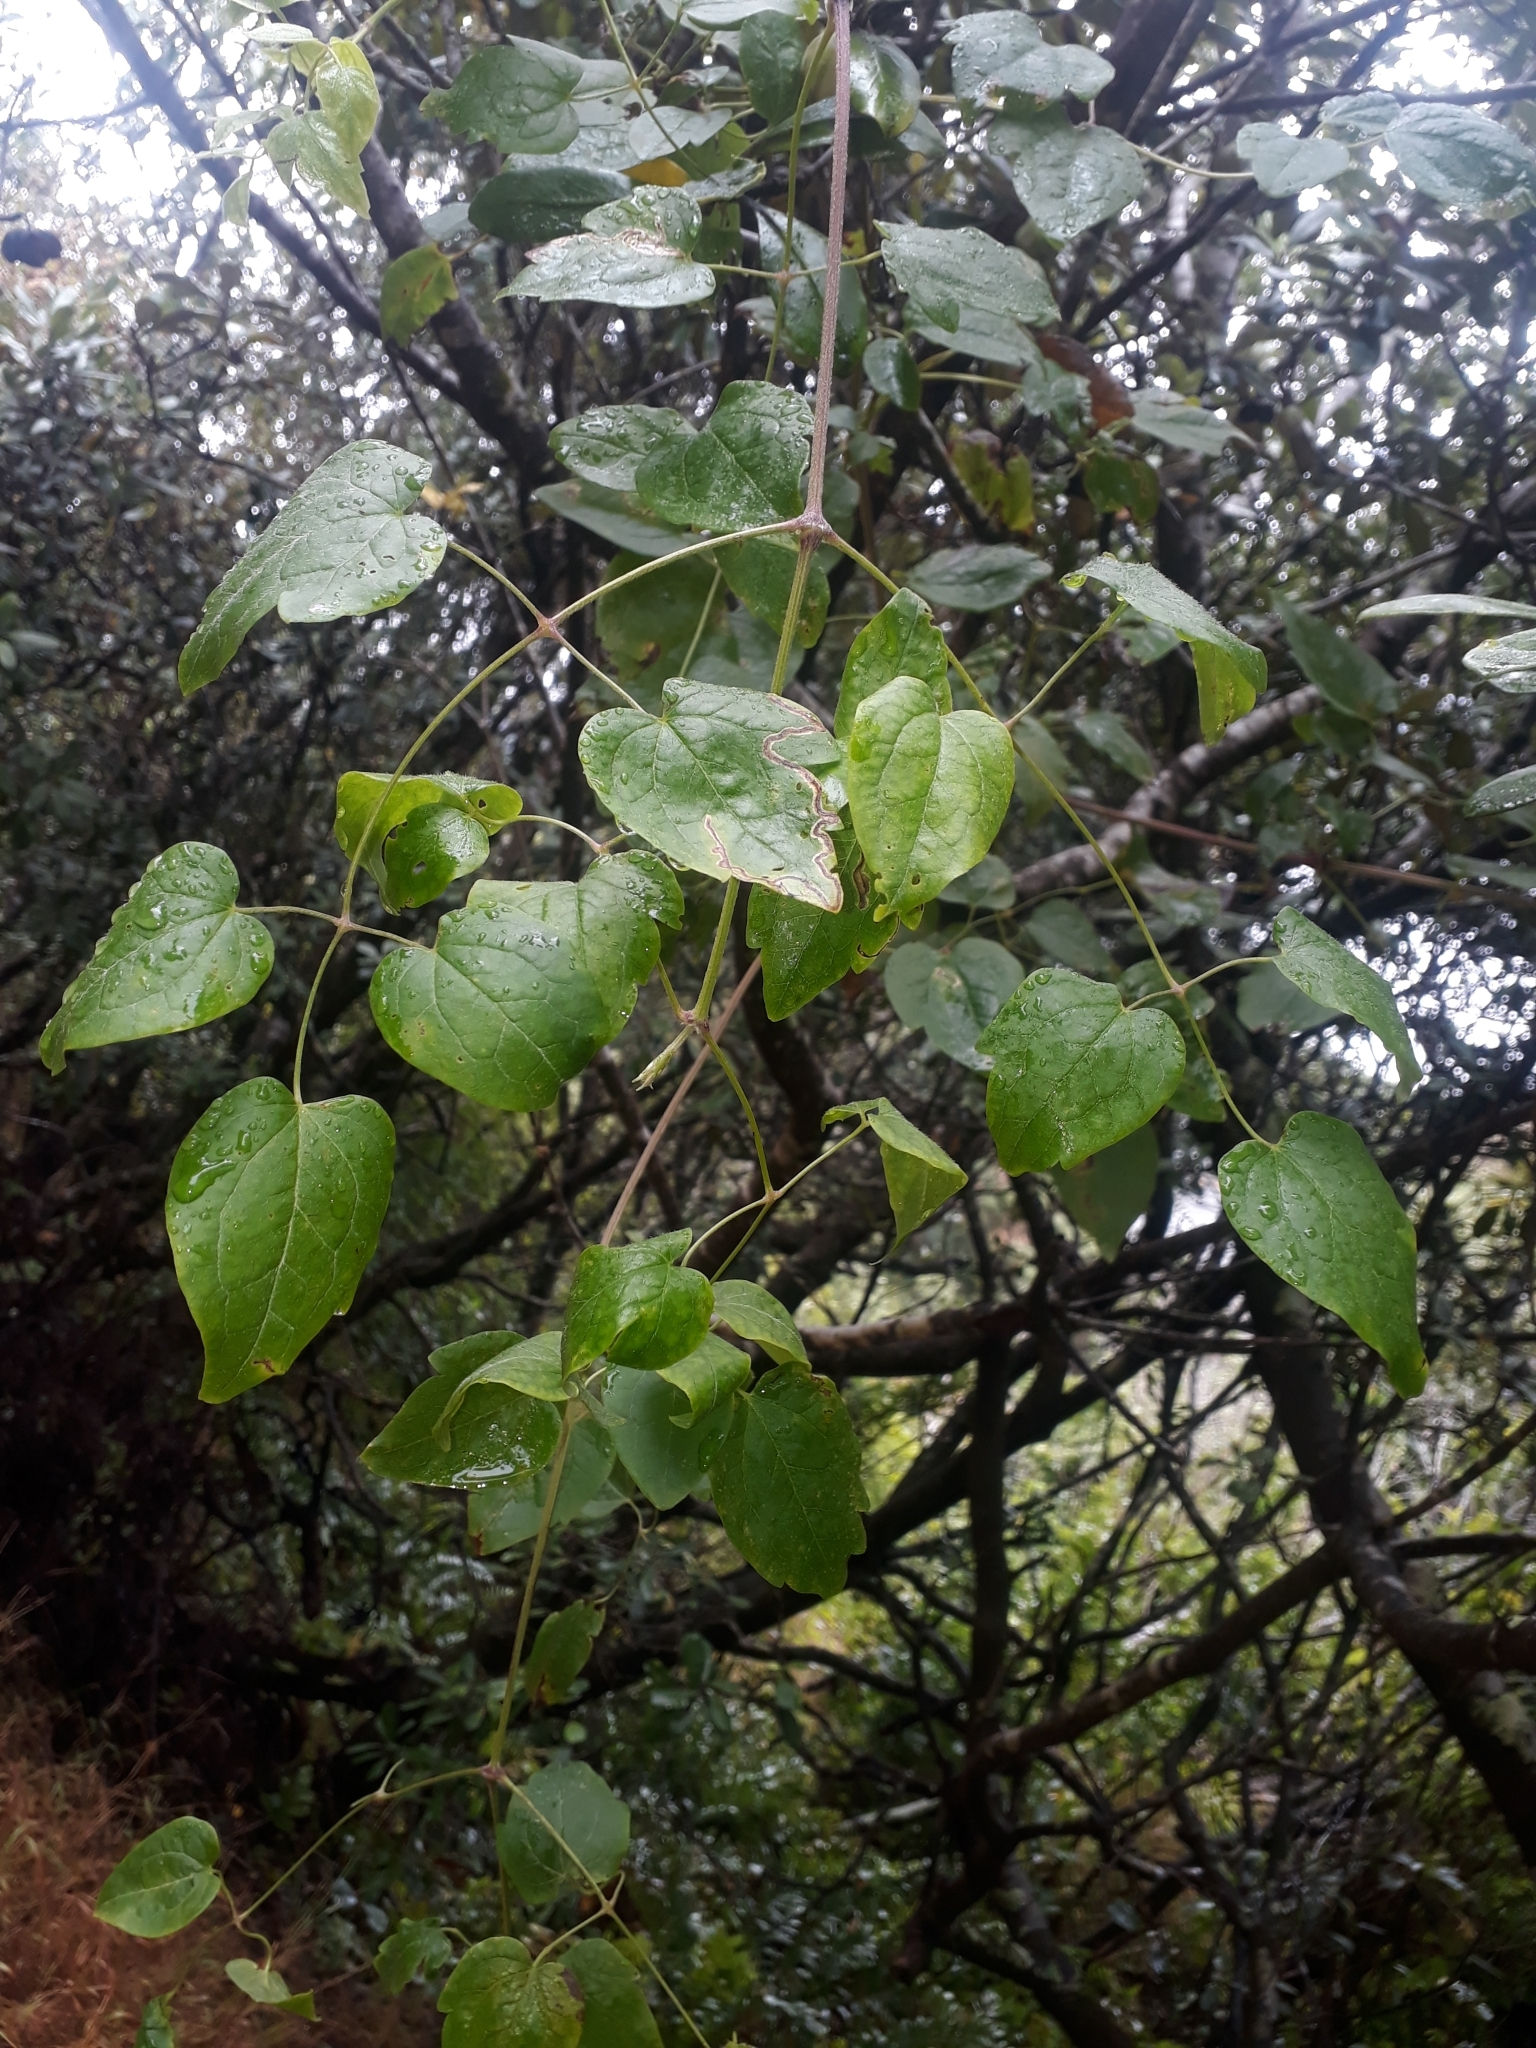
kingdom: Plantae
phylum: Tracheophyta
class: Magnoliopsida
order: Ranunculales
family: Ranunculaceae
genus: Clematis
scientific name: Clematis vitalba
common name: Evergreen clematis
